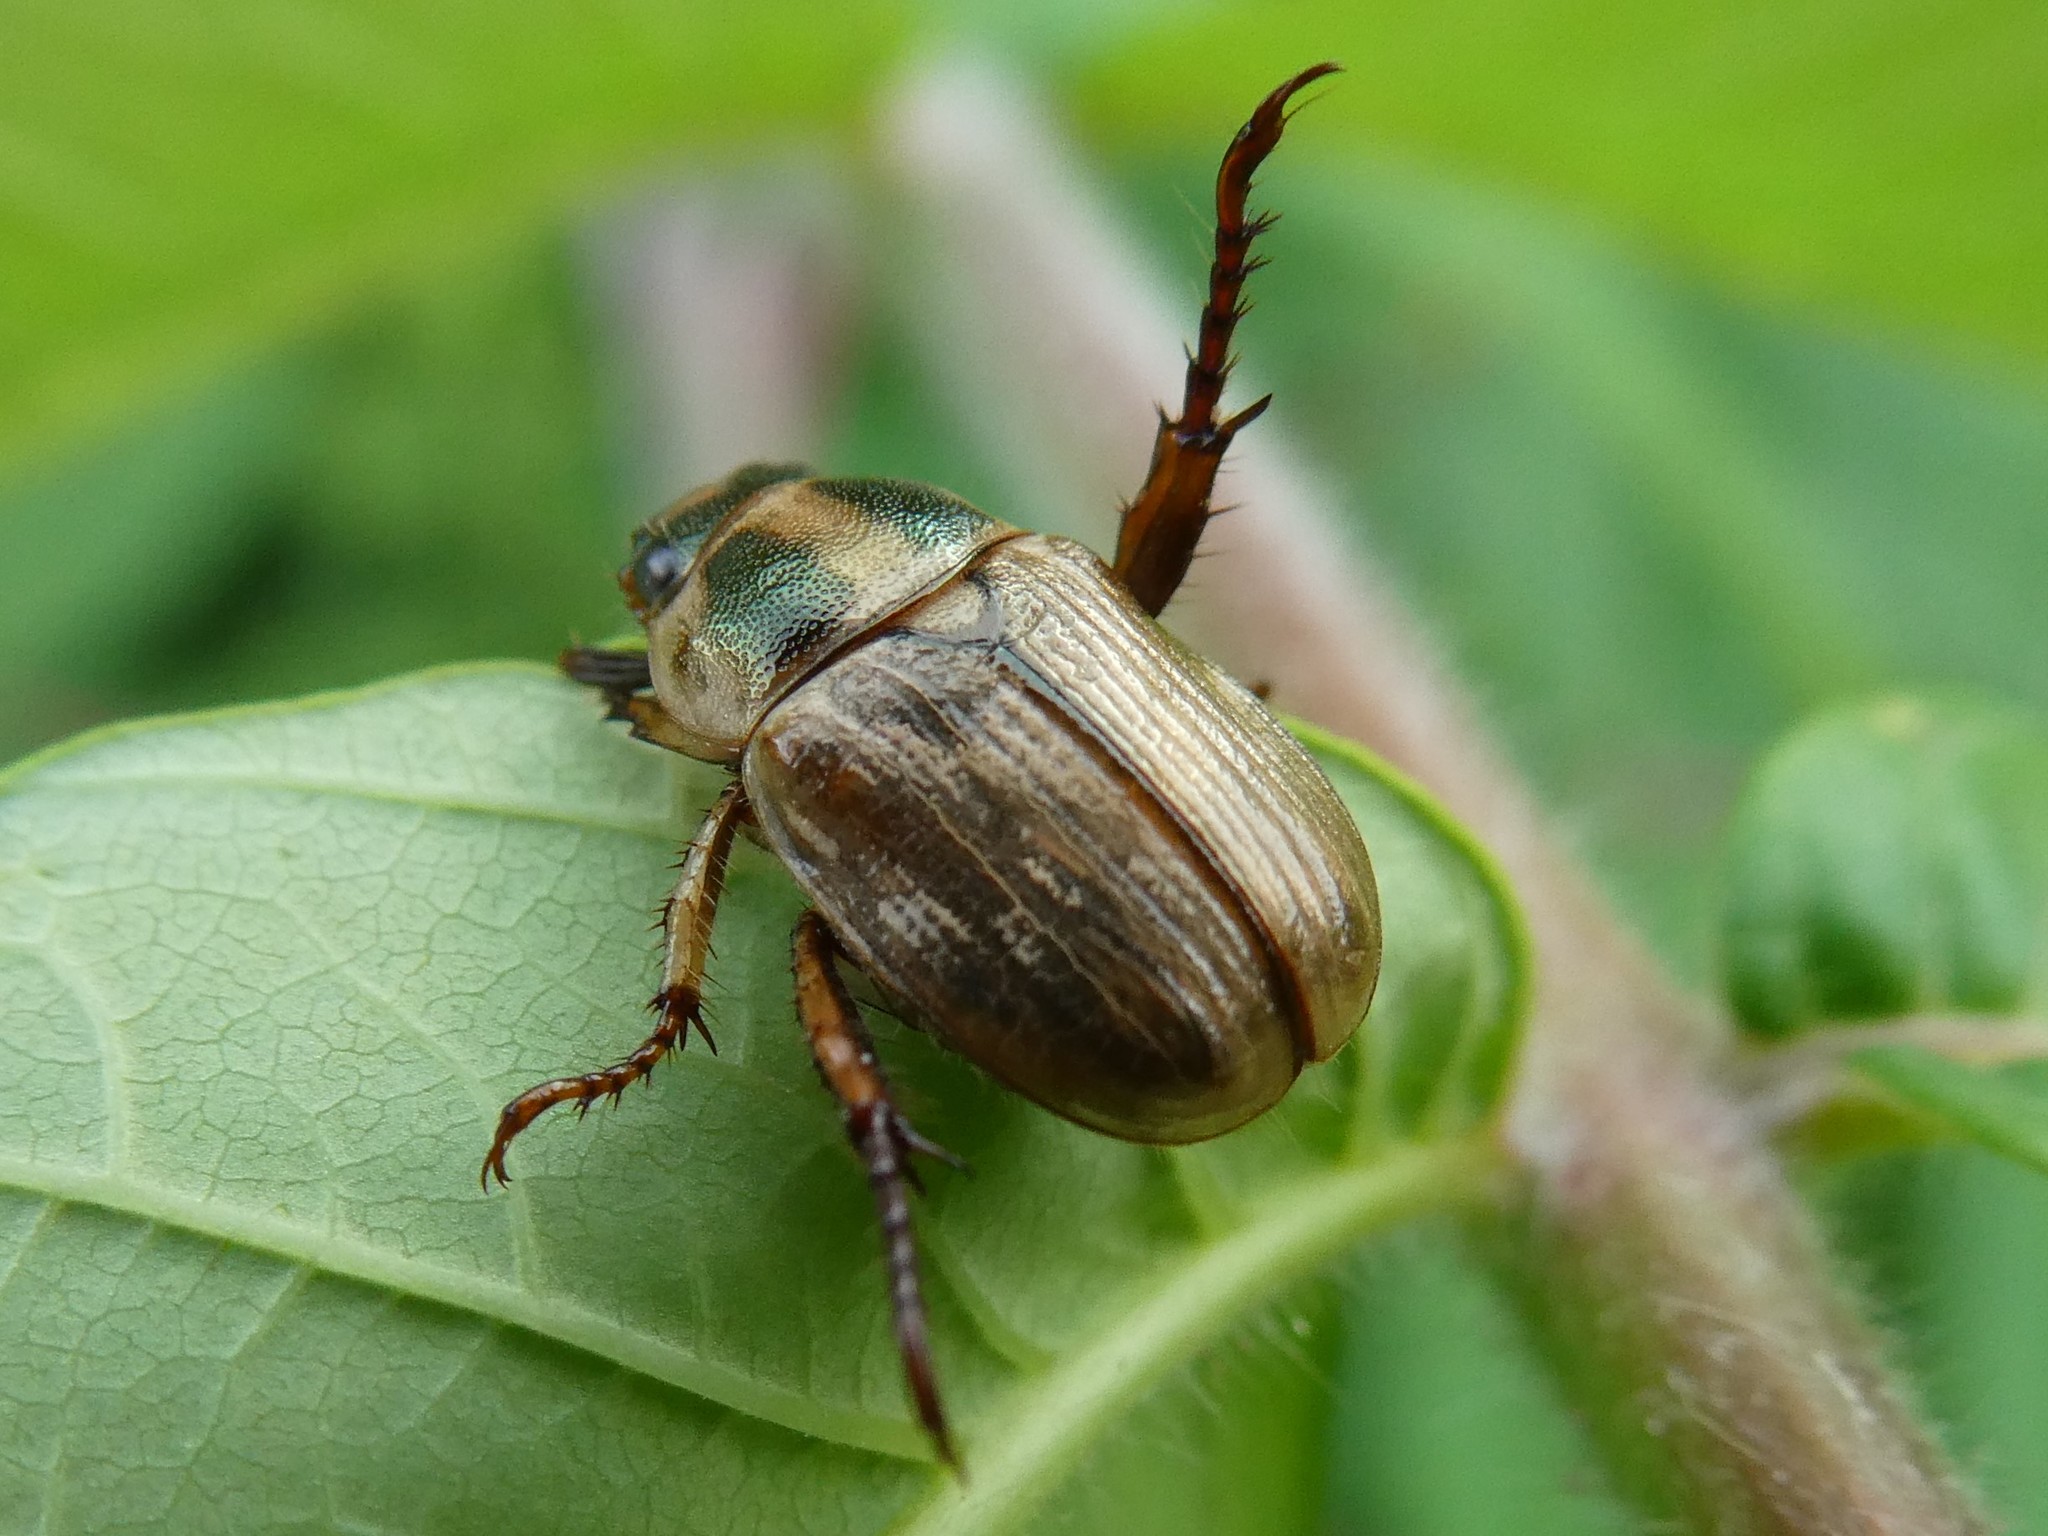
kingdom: Animalia
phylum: Arthropoda
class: Insecta
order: Coleoptera
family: Scarabaeidae
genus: Exomala
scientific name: Exomala orientalis
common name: Oriental beetle
